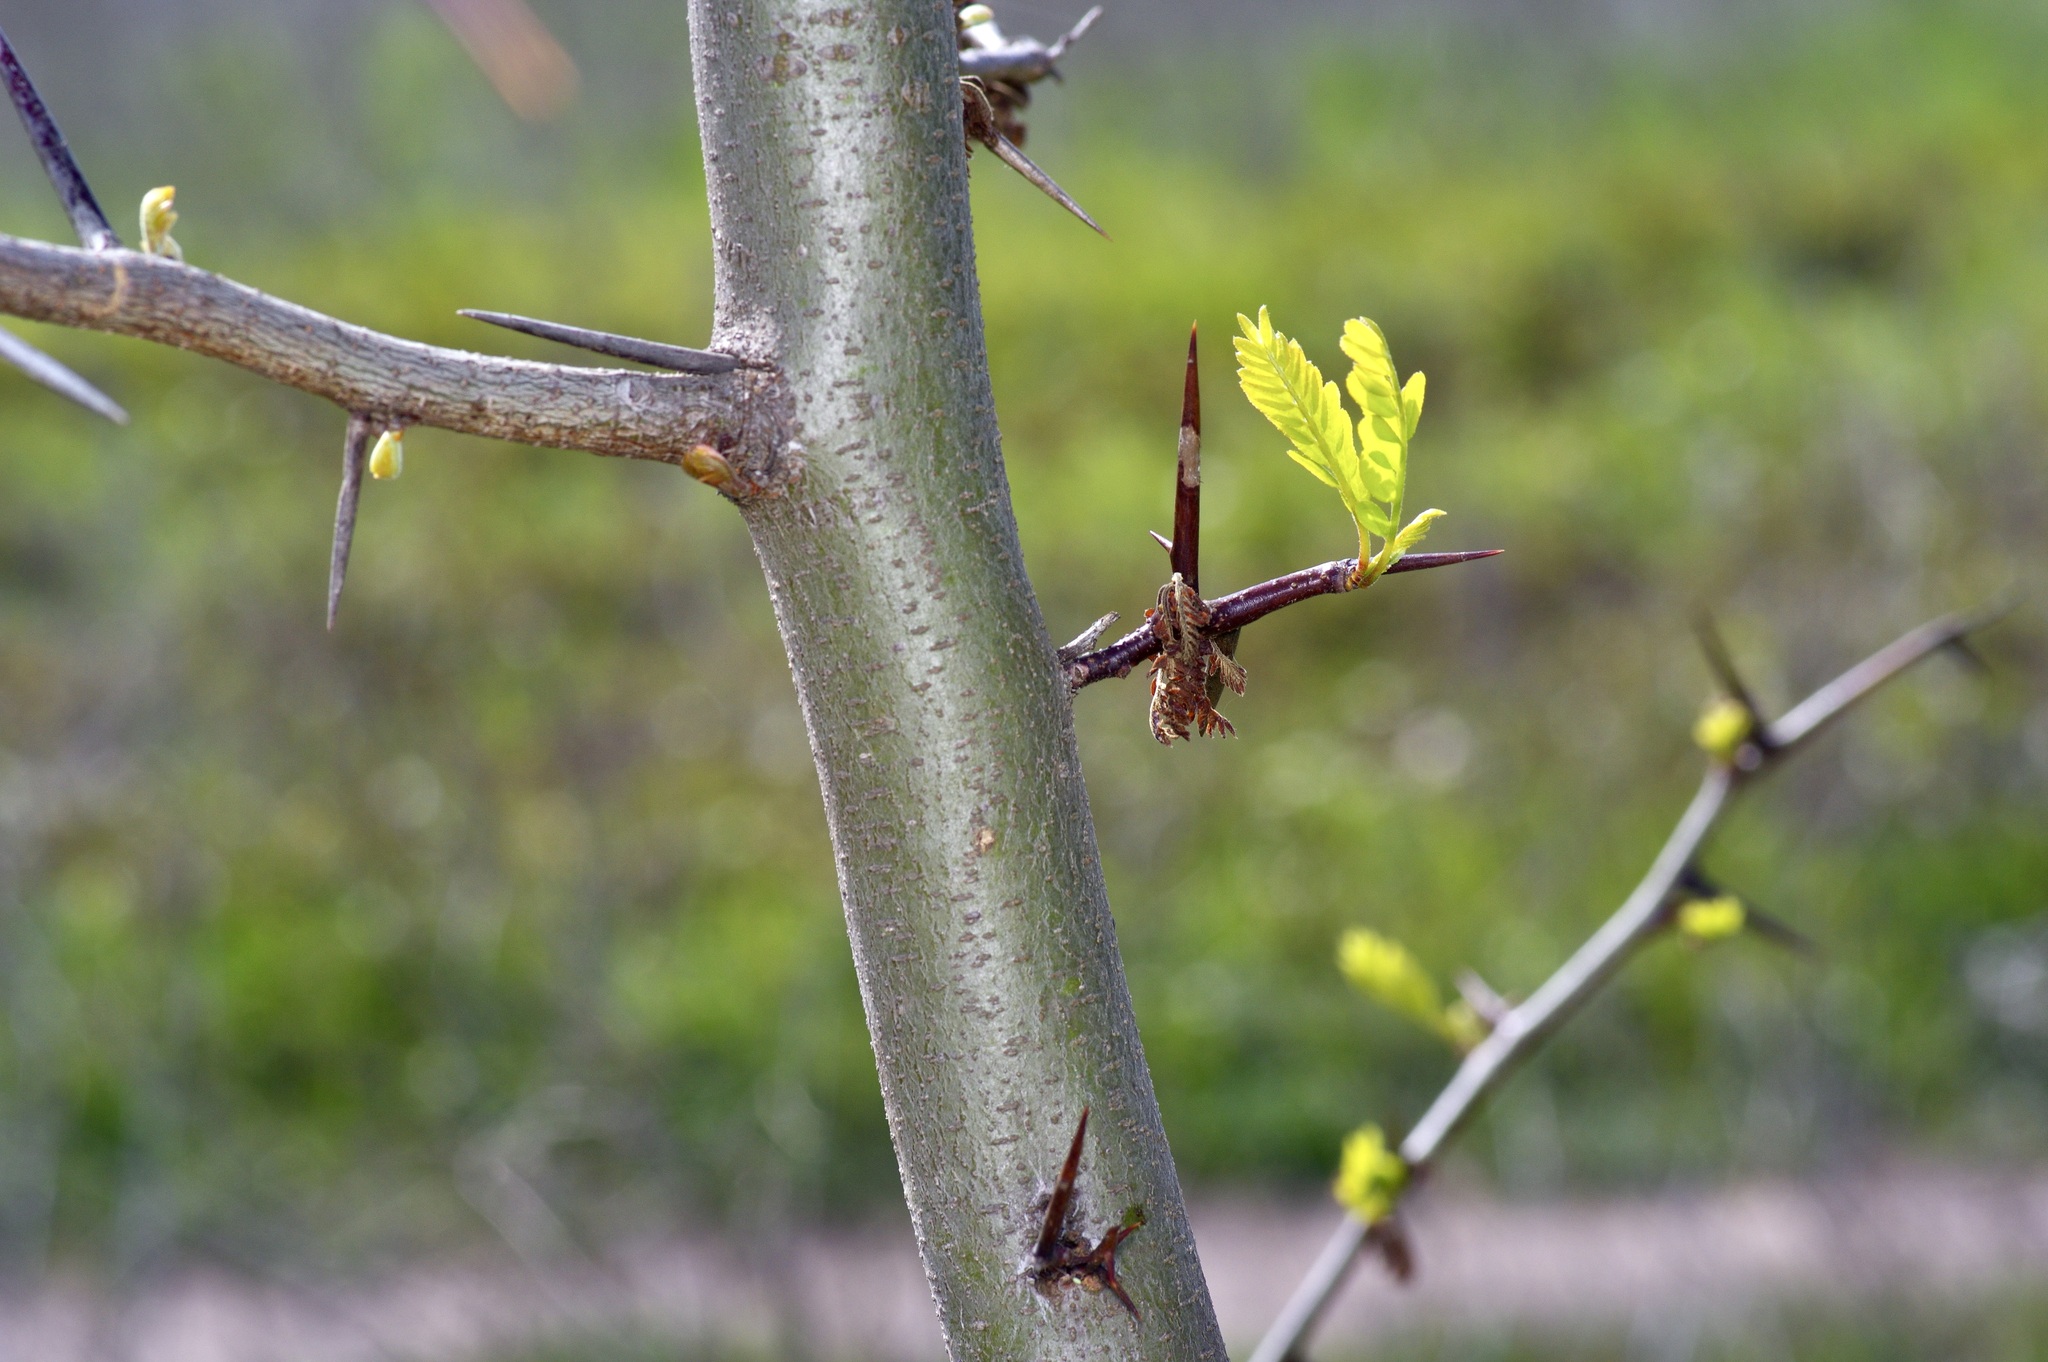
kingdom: Plantae
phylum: Tracheophyta
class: Magnoliopsida
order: Fabales
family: Fabaceae
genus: Gleditsia
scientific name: Gleditsia triacanthos
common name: Common honeylocust
